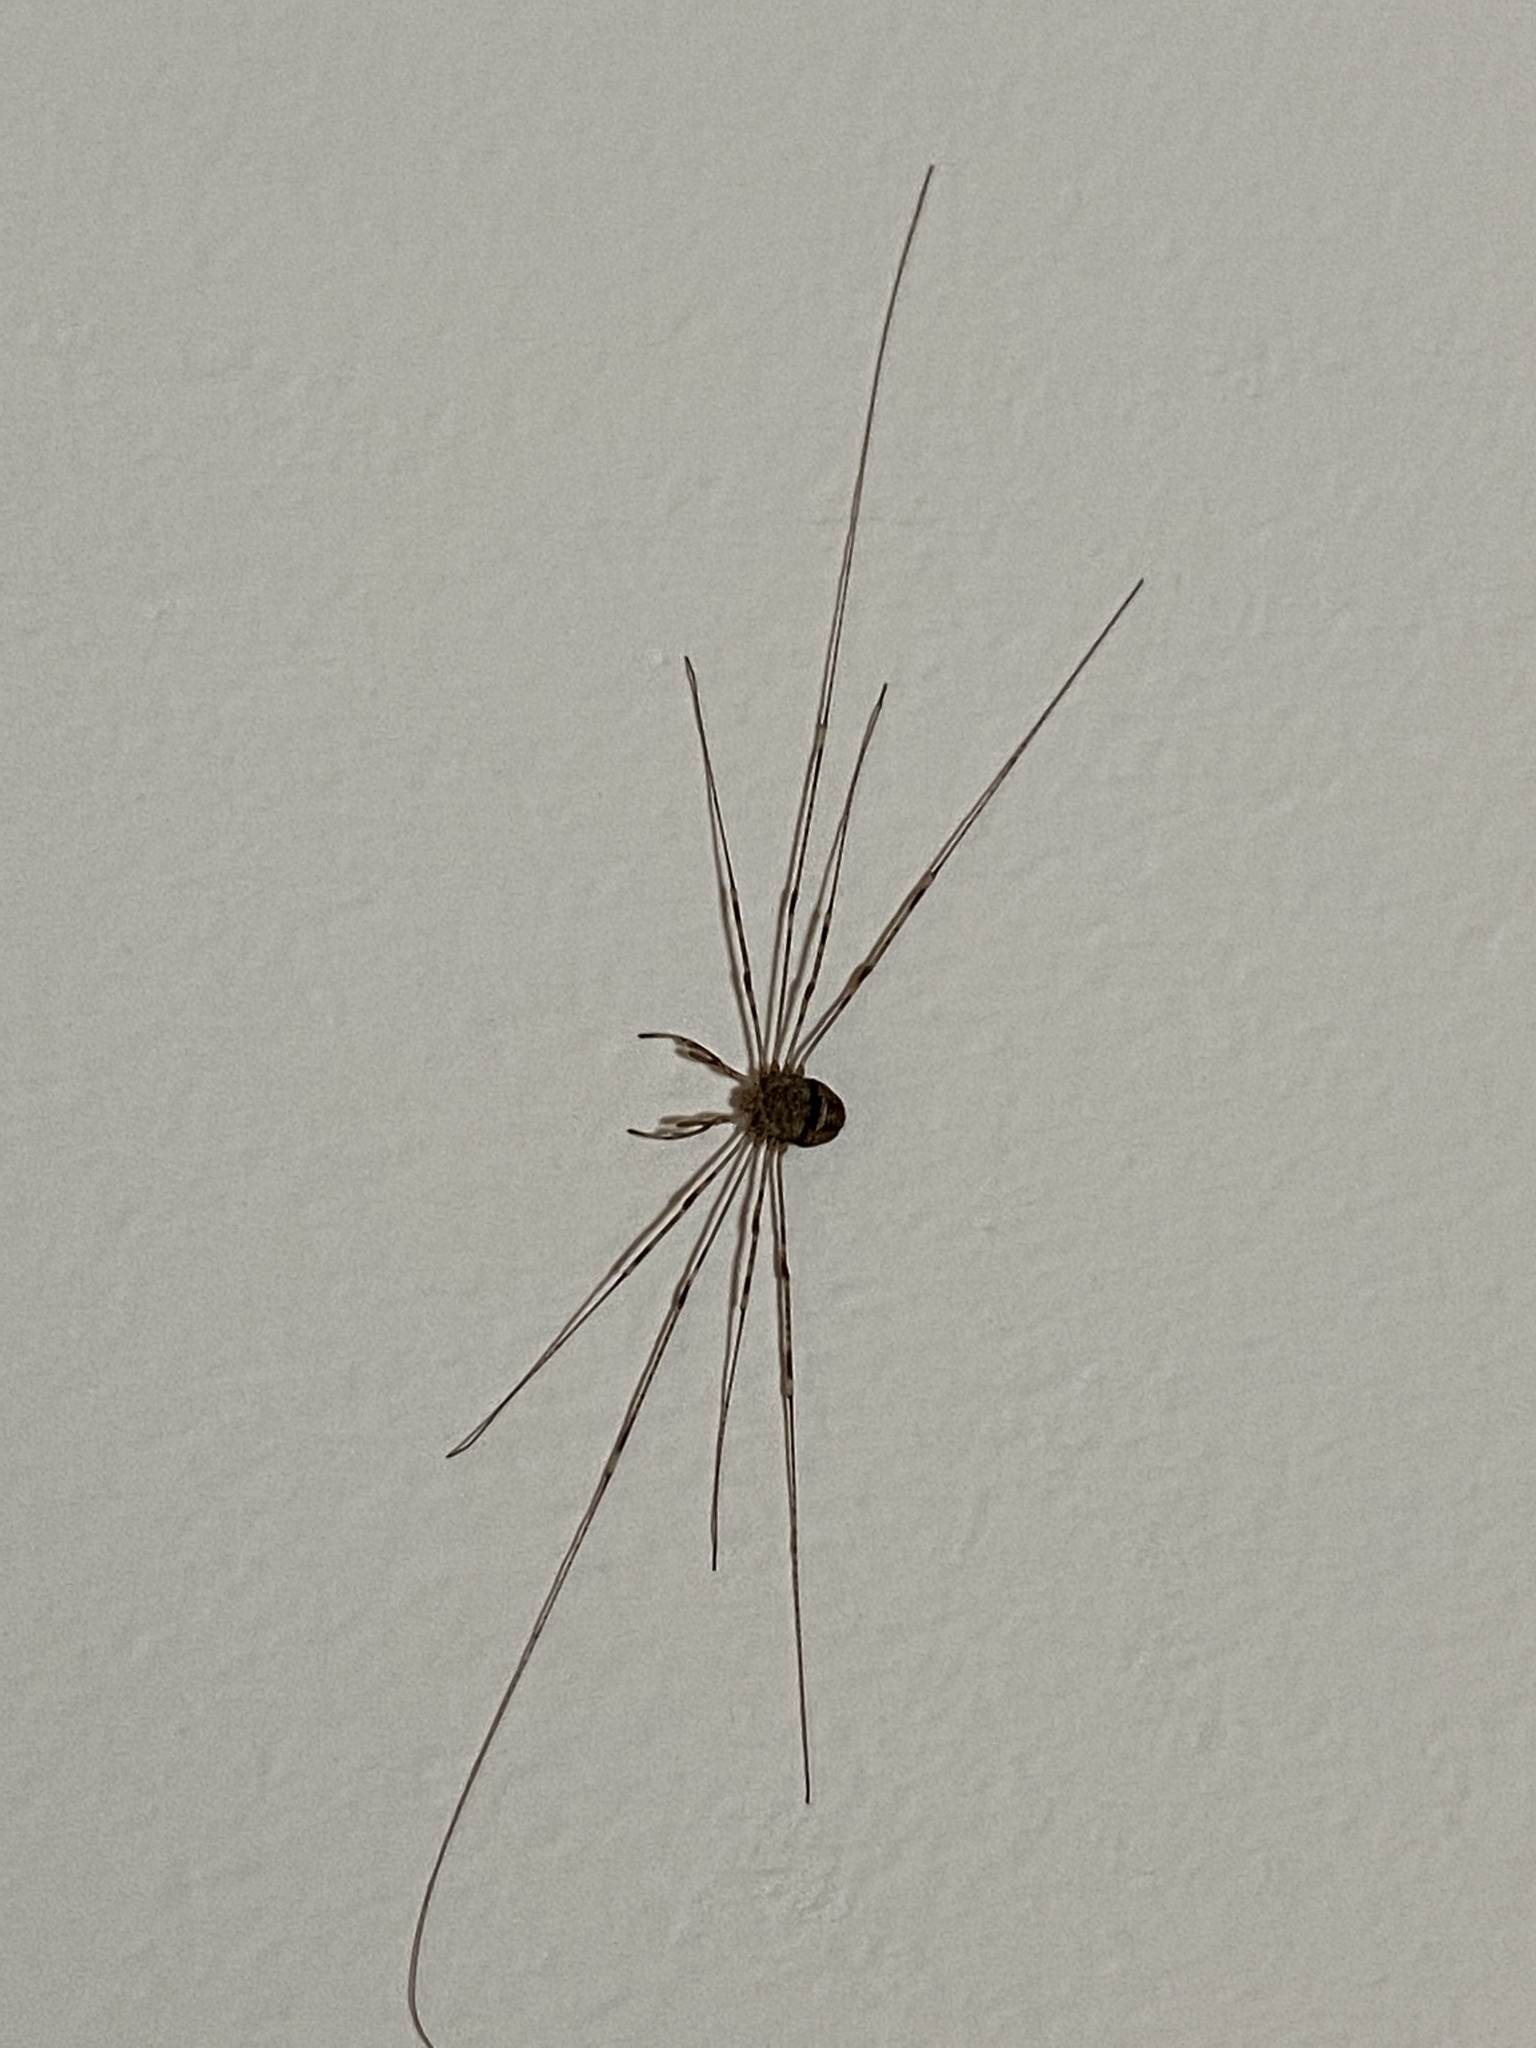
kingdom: Animalia
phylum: Arthropoda
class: Arachnida
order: Opiliones
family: Phalangiidae
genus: Dicranopalpus
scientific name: Dicranopalpus ramosus
